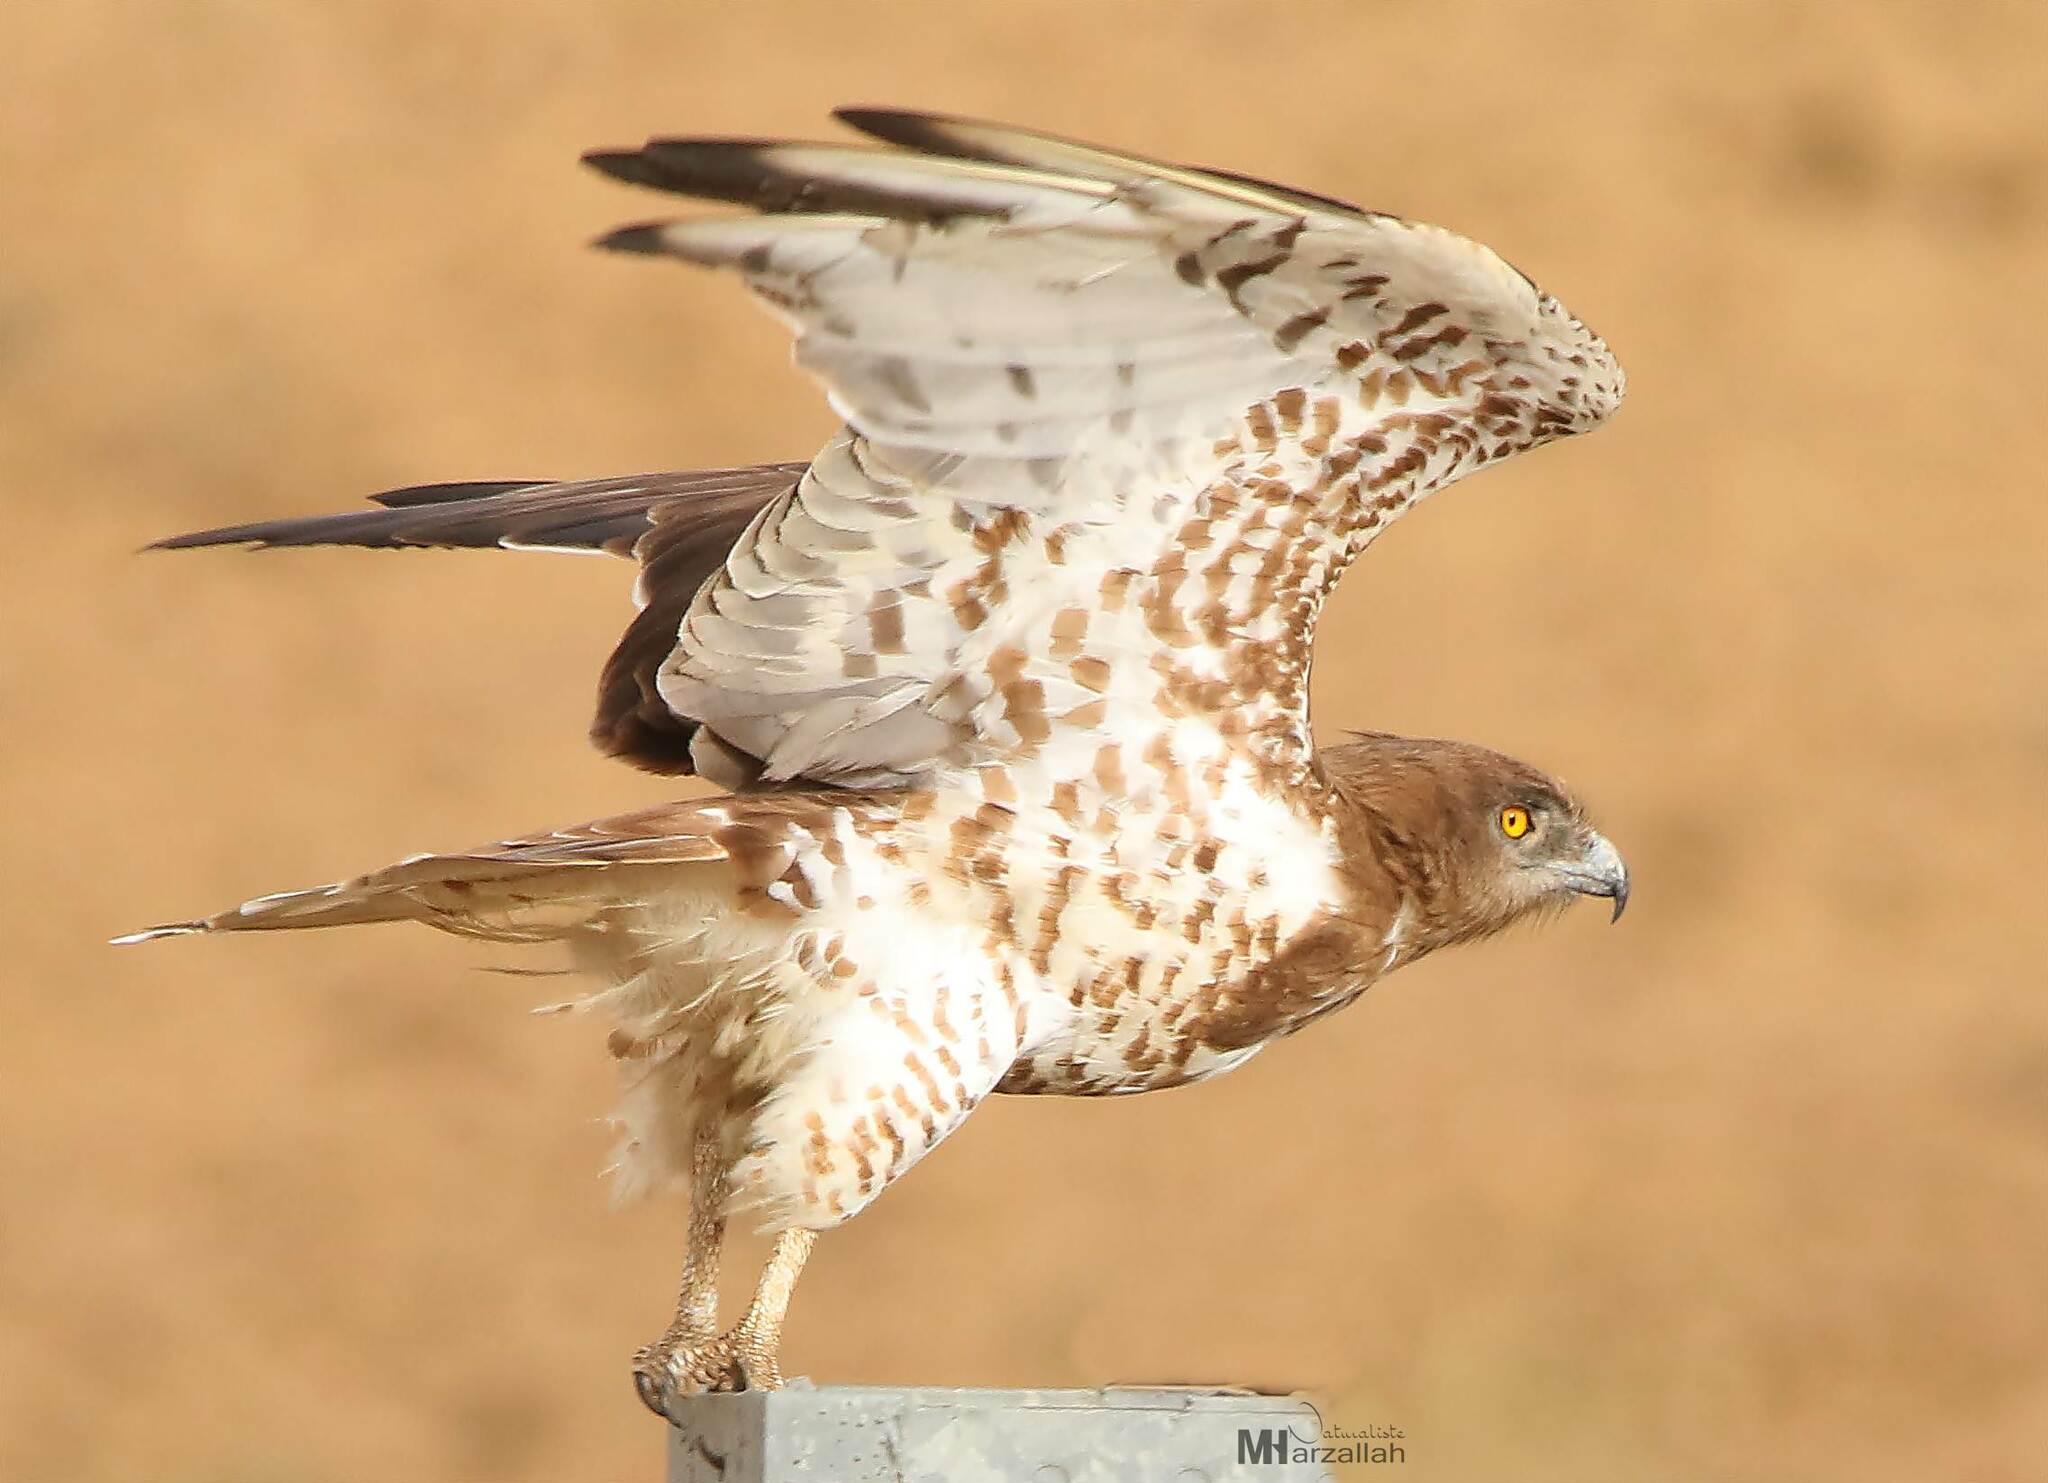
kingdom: Animalia
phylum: Chordata
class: Aves
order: Accipitriformes
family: Accipitridae
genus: Circaetus
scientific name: Circaetus gallicus
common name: Short-toed snake eagle
